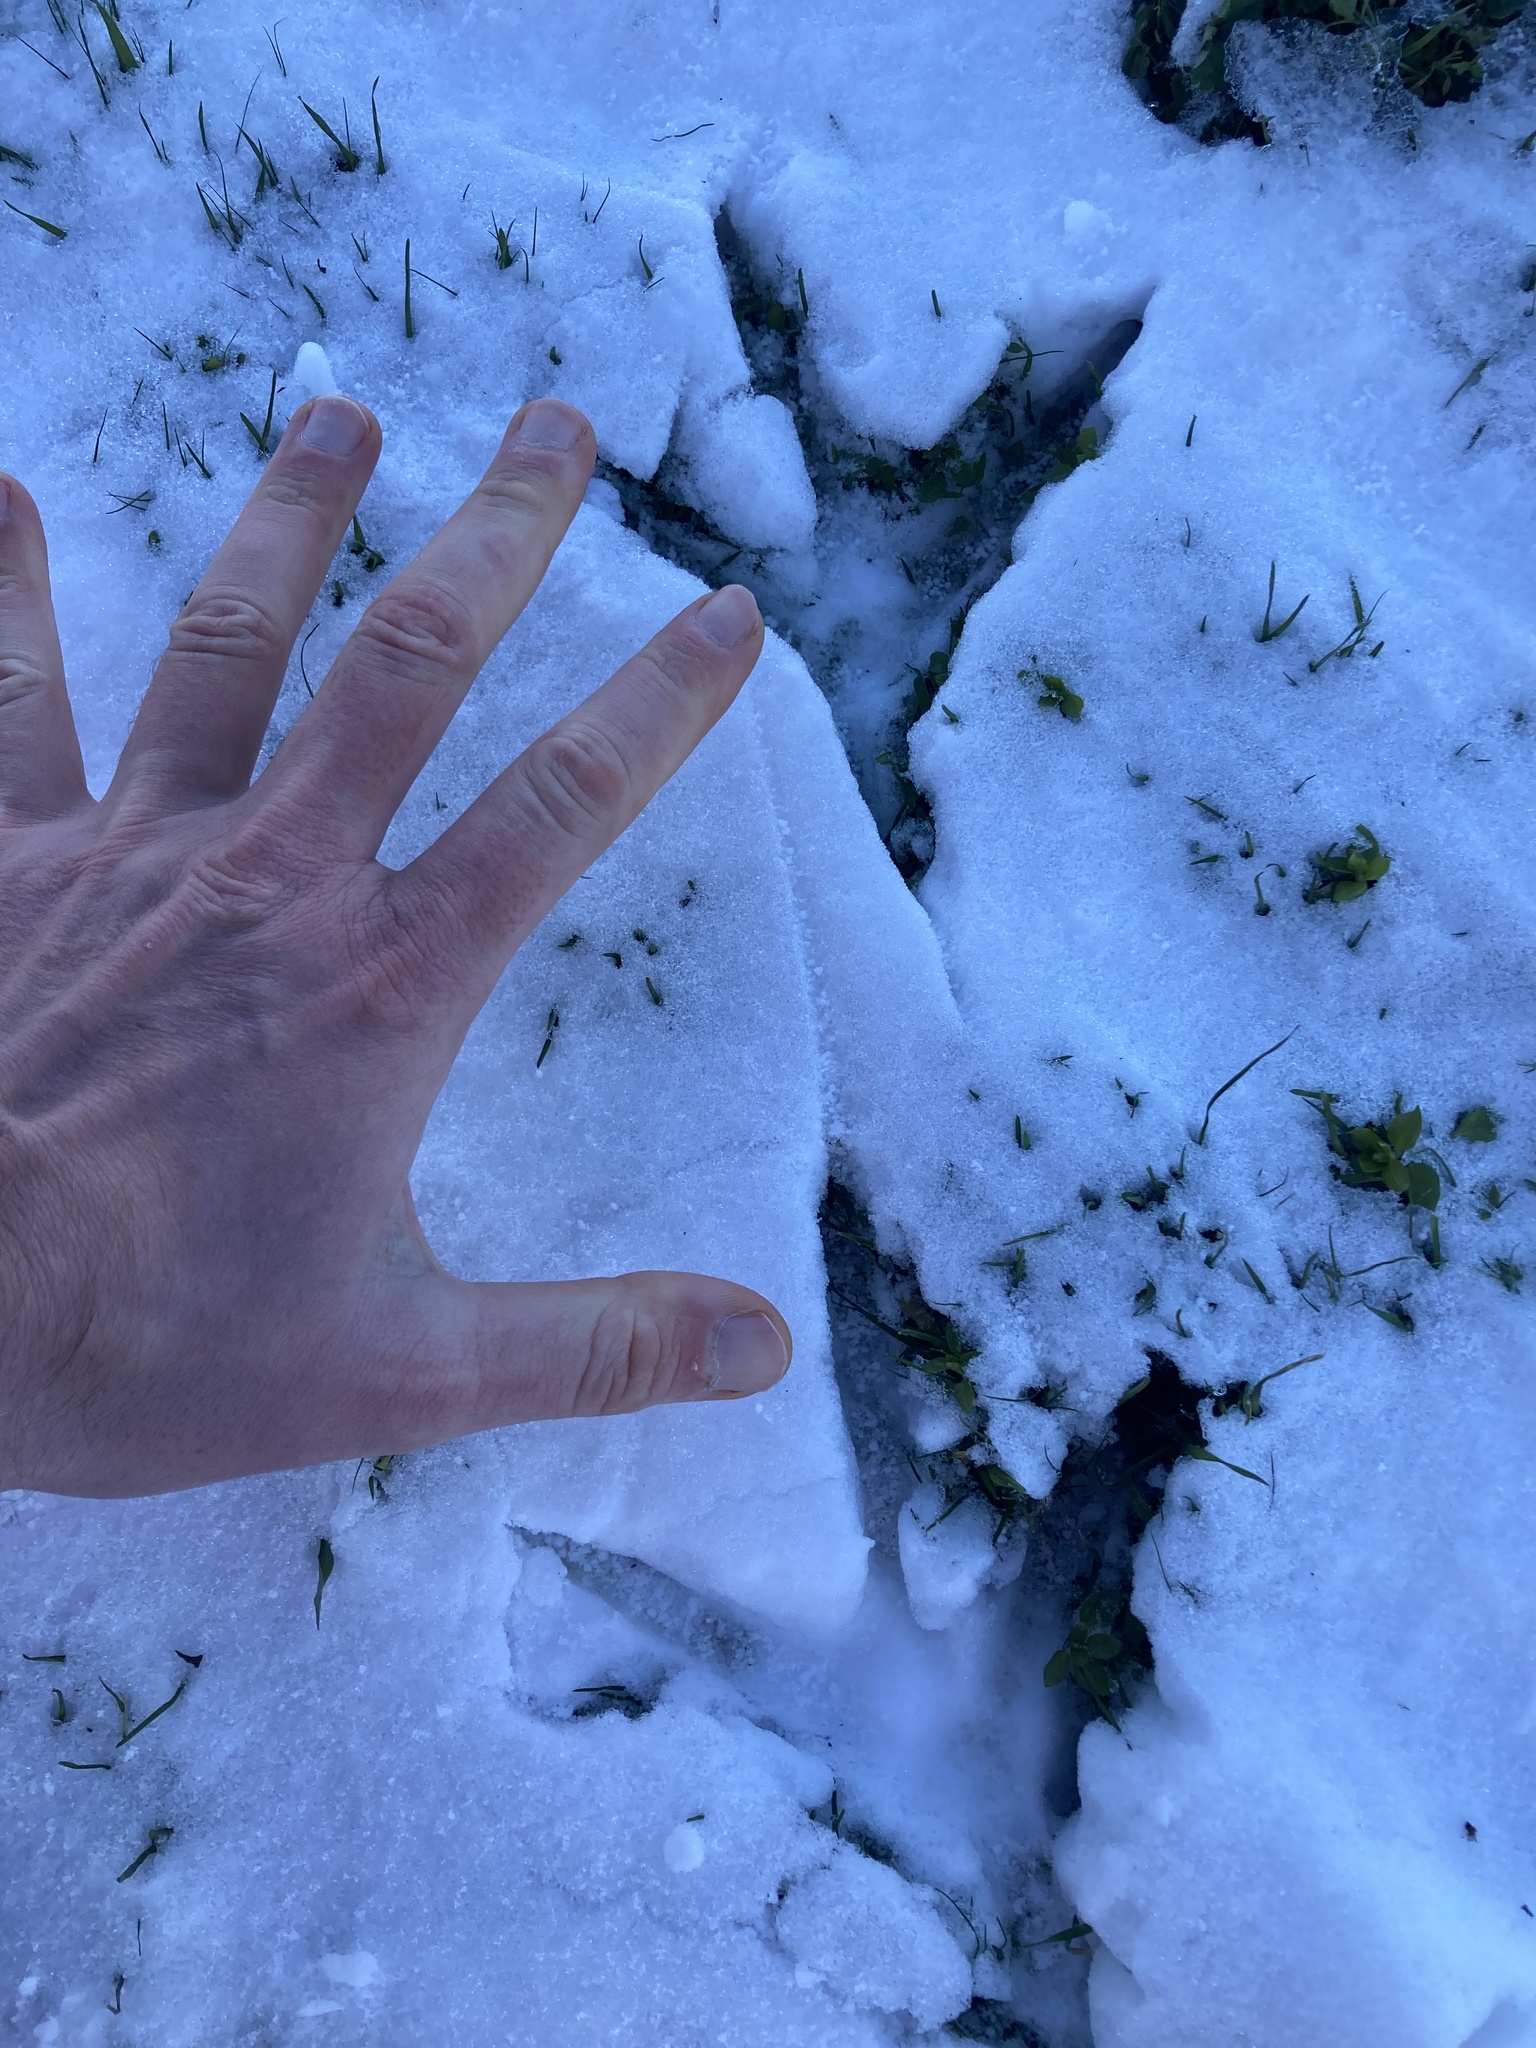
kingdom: Animalia
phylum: Chordata
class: Aves
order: Pelecaniformes
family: Ardeidae
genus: Ardea
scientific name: Ardea herodias
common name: Great blue heron
